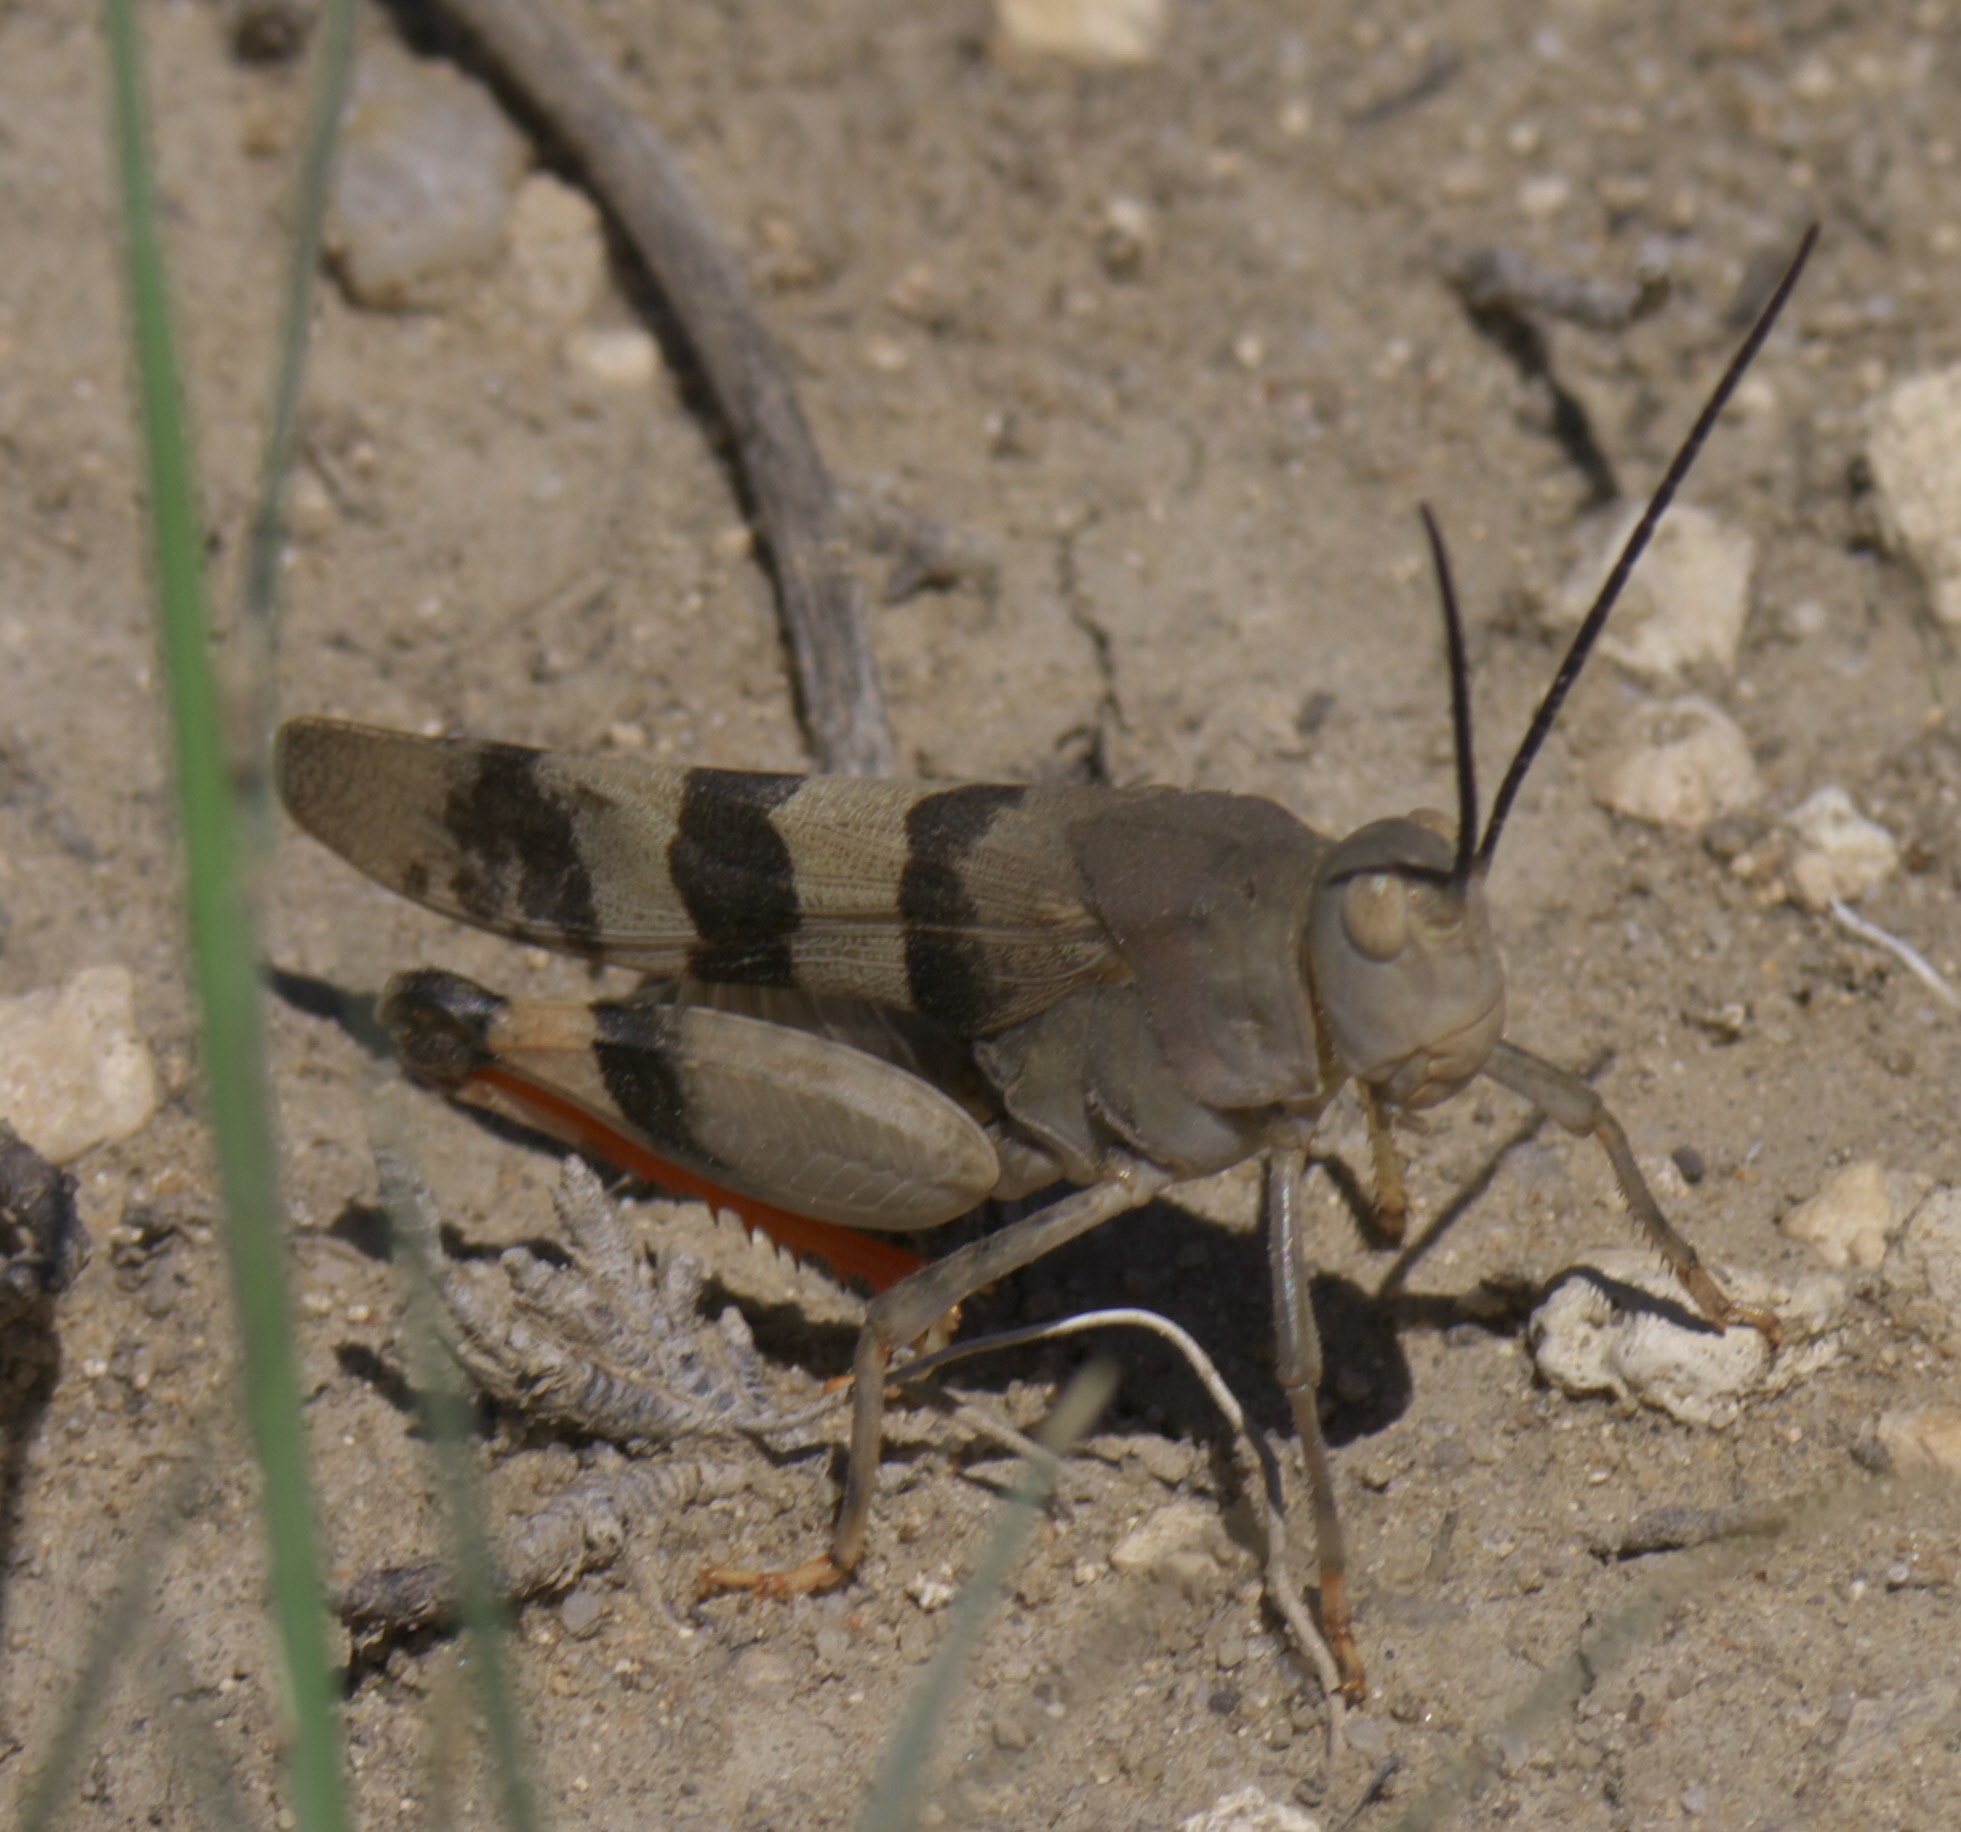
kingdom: Animalia
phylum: Arthropoda
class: Insecta
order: Orthoptera
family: Acrididae
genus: Hadrotettix
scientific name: Hadrotettix trifasciatus
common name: Threebanded grasshopper
